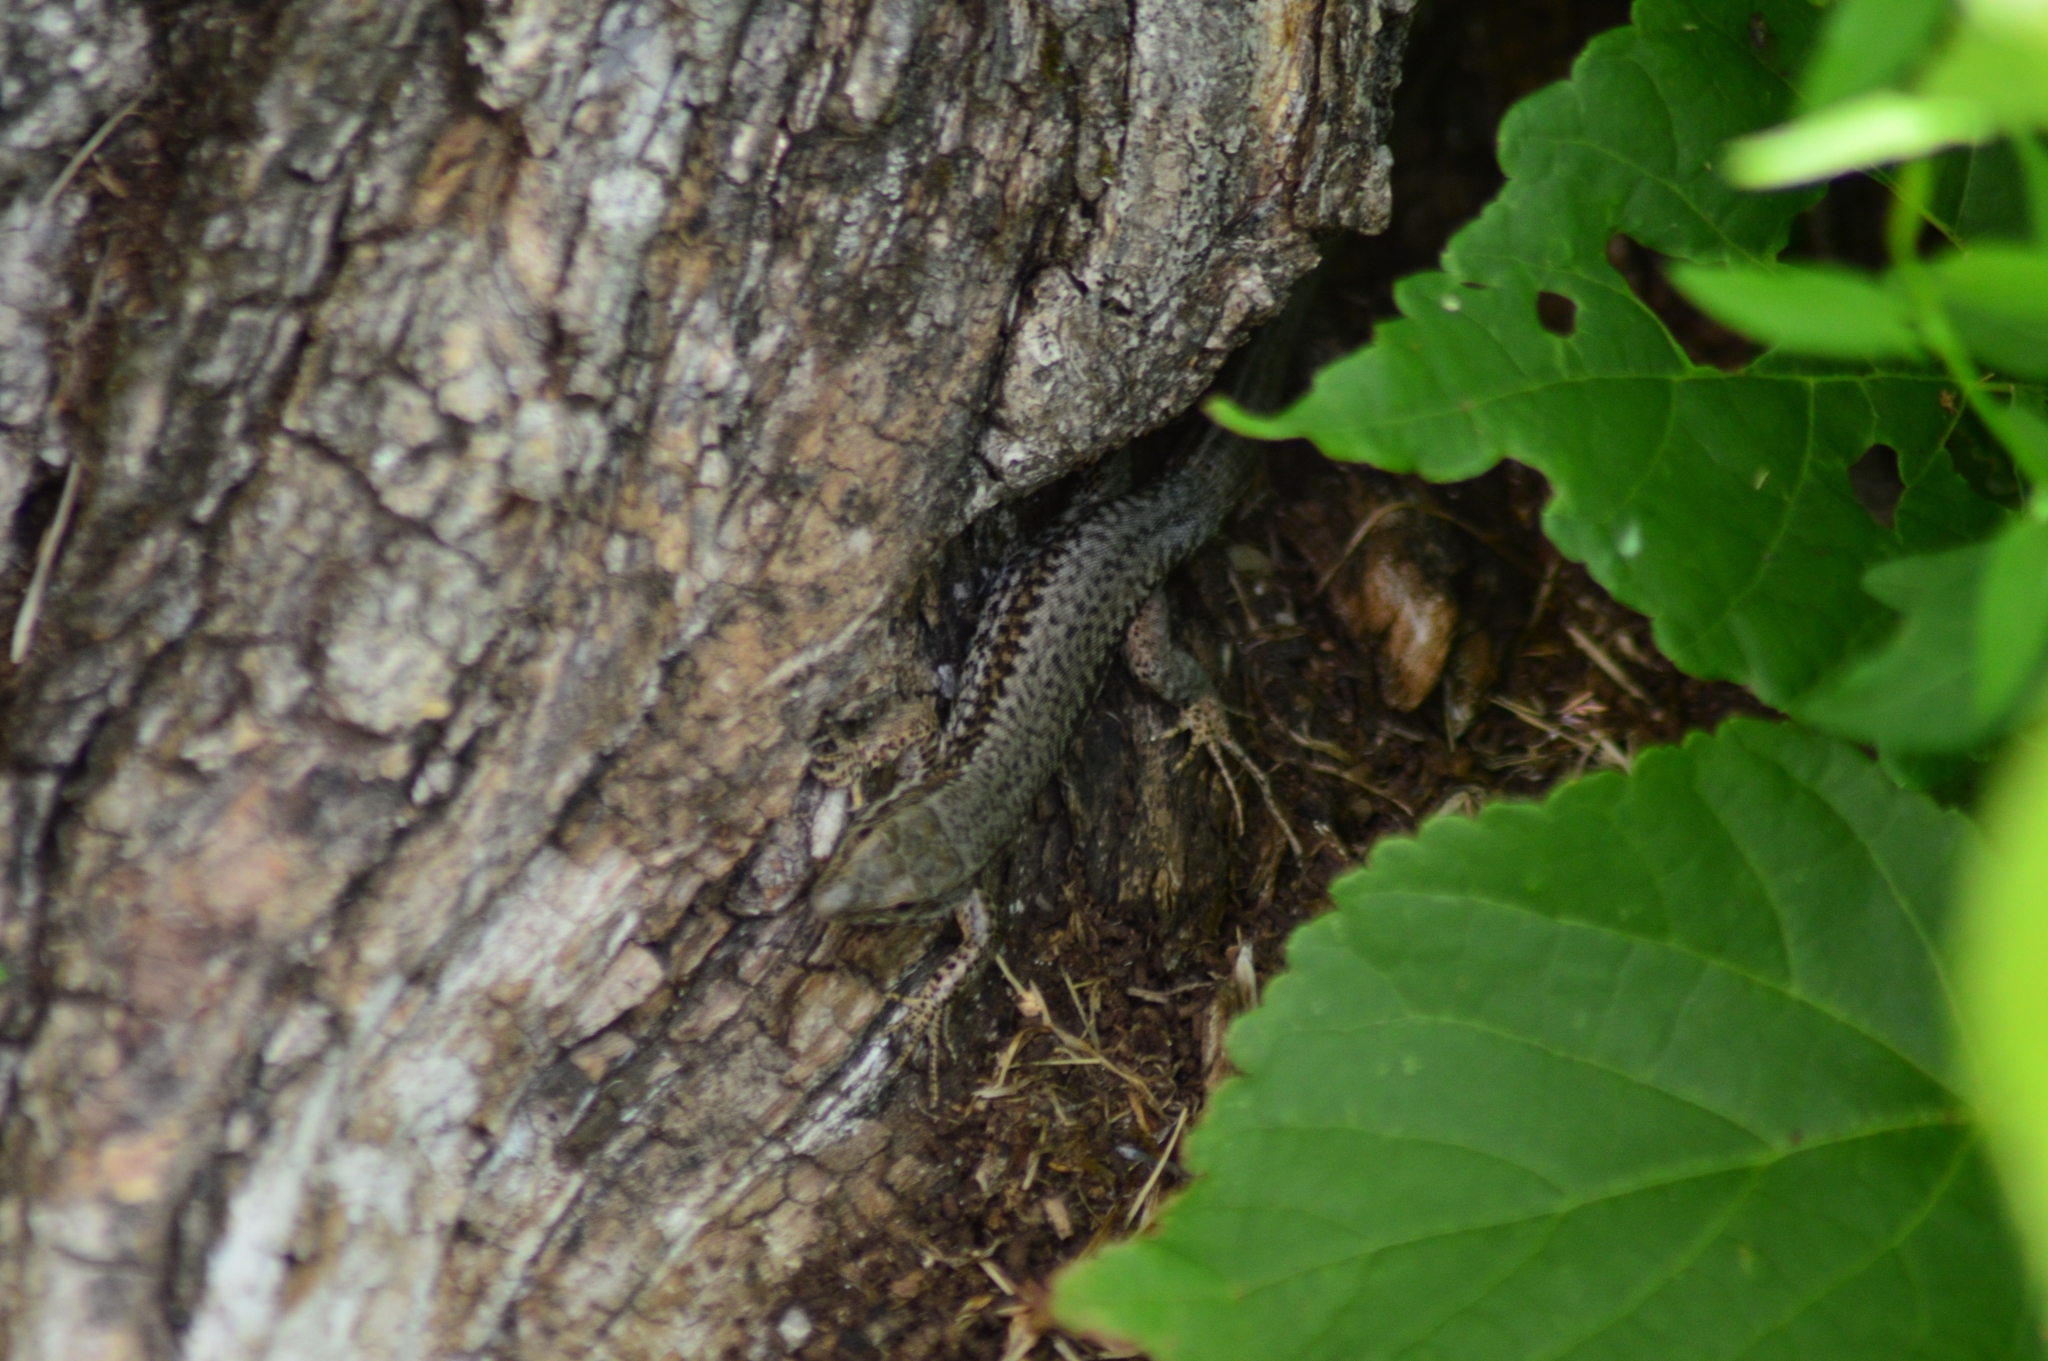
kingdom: Animalia
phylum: Chordata
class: Squamata
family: Lacertidae
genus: Podarcis
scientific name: Podarcis muralis
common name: Common wall lizard
